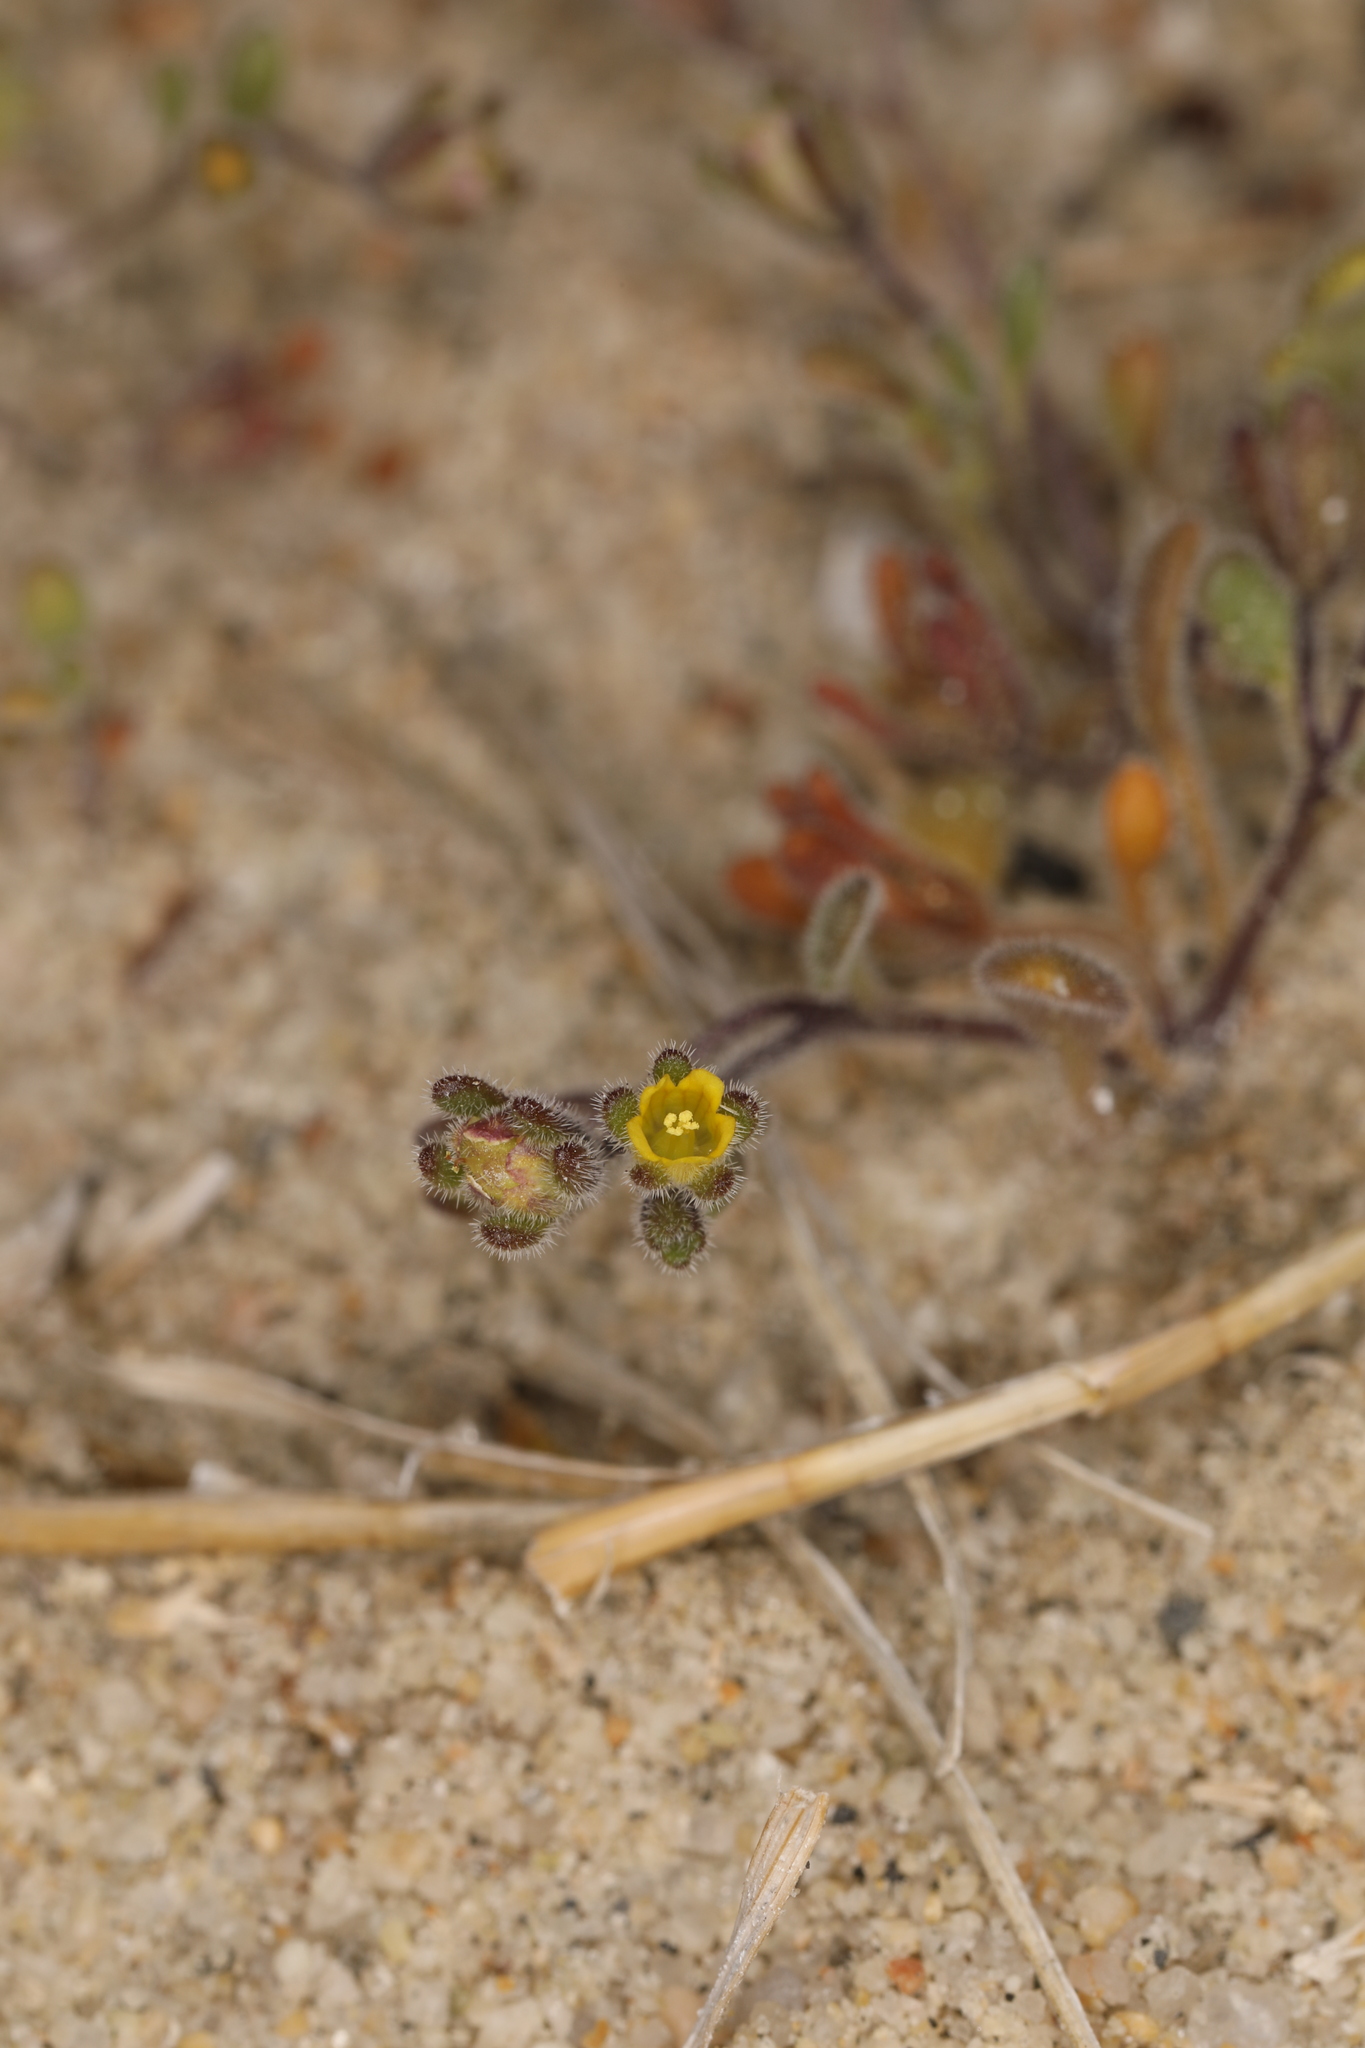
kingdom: Plantae
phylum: Tracheophyta
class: Magnoliopsida
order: Boraginales
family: Hydrophyllaceae
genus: Phacelia
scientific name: Phacelia inyoensis
